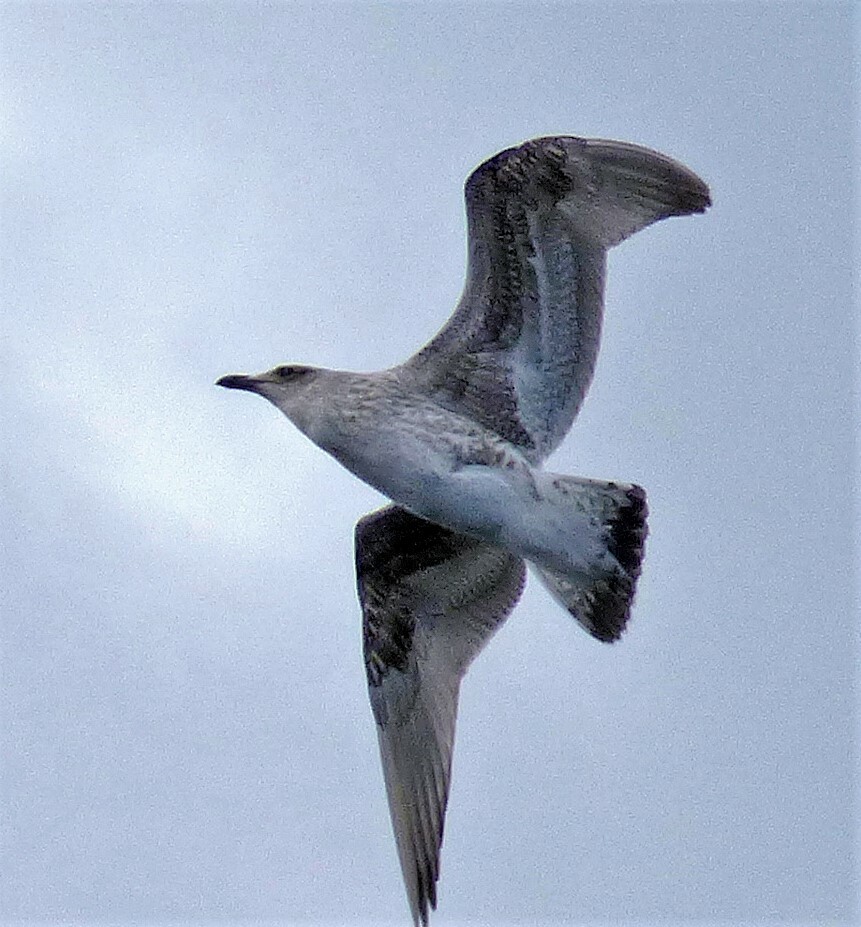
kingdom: Animalia
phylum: Chordata
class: Aves
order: Charadriiformes
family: Laridae
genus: Larus
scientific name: Larus dominicanus
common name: Kelp gull
